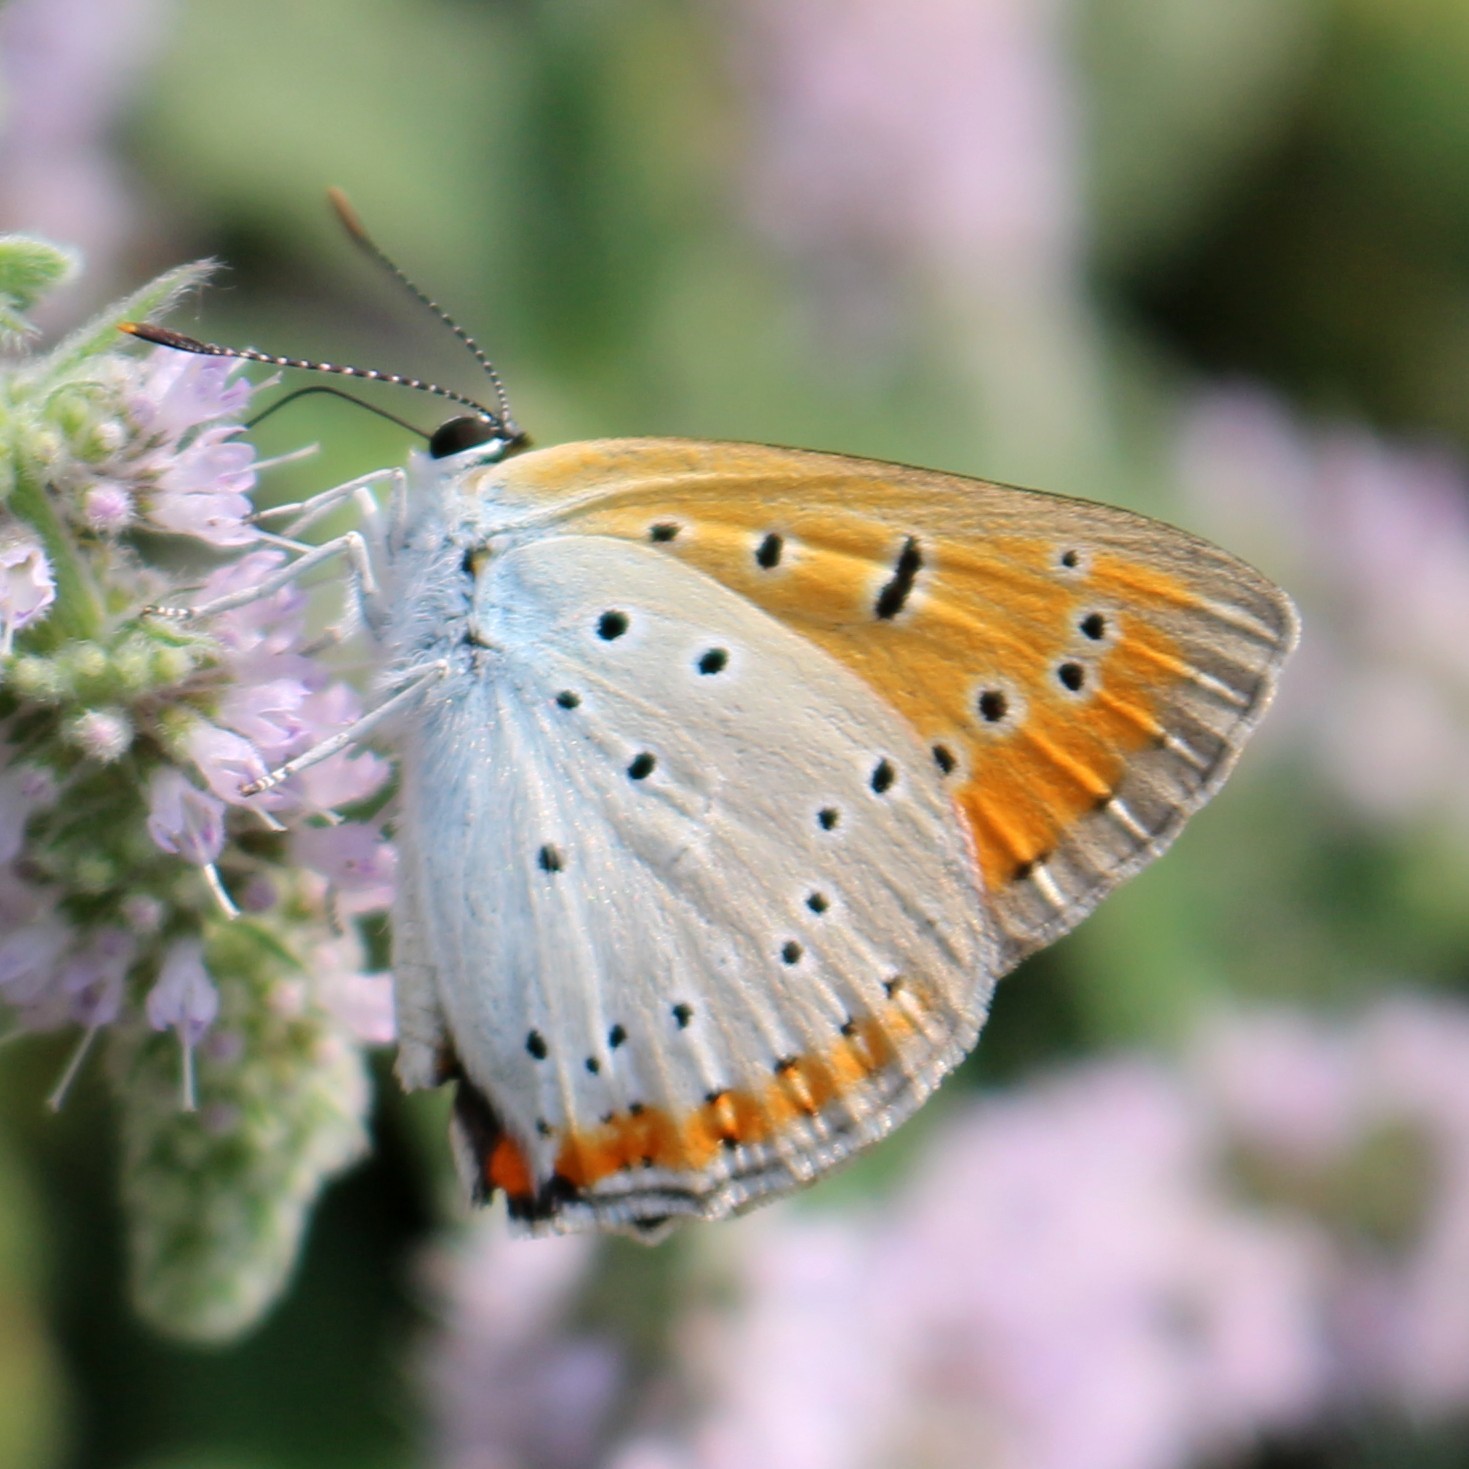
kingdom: Animalia
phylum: Arthropoda
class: Insecta
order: Lepidoptera
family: Lycaenidae
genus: Lycaena
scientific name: Lycaena dispar
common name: Large copper
